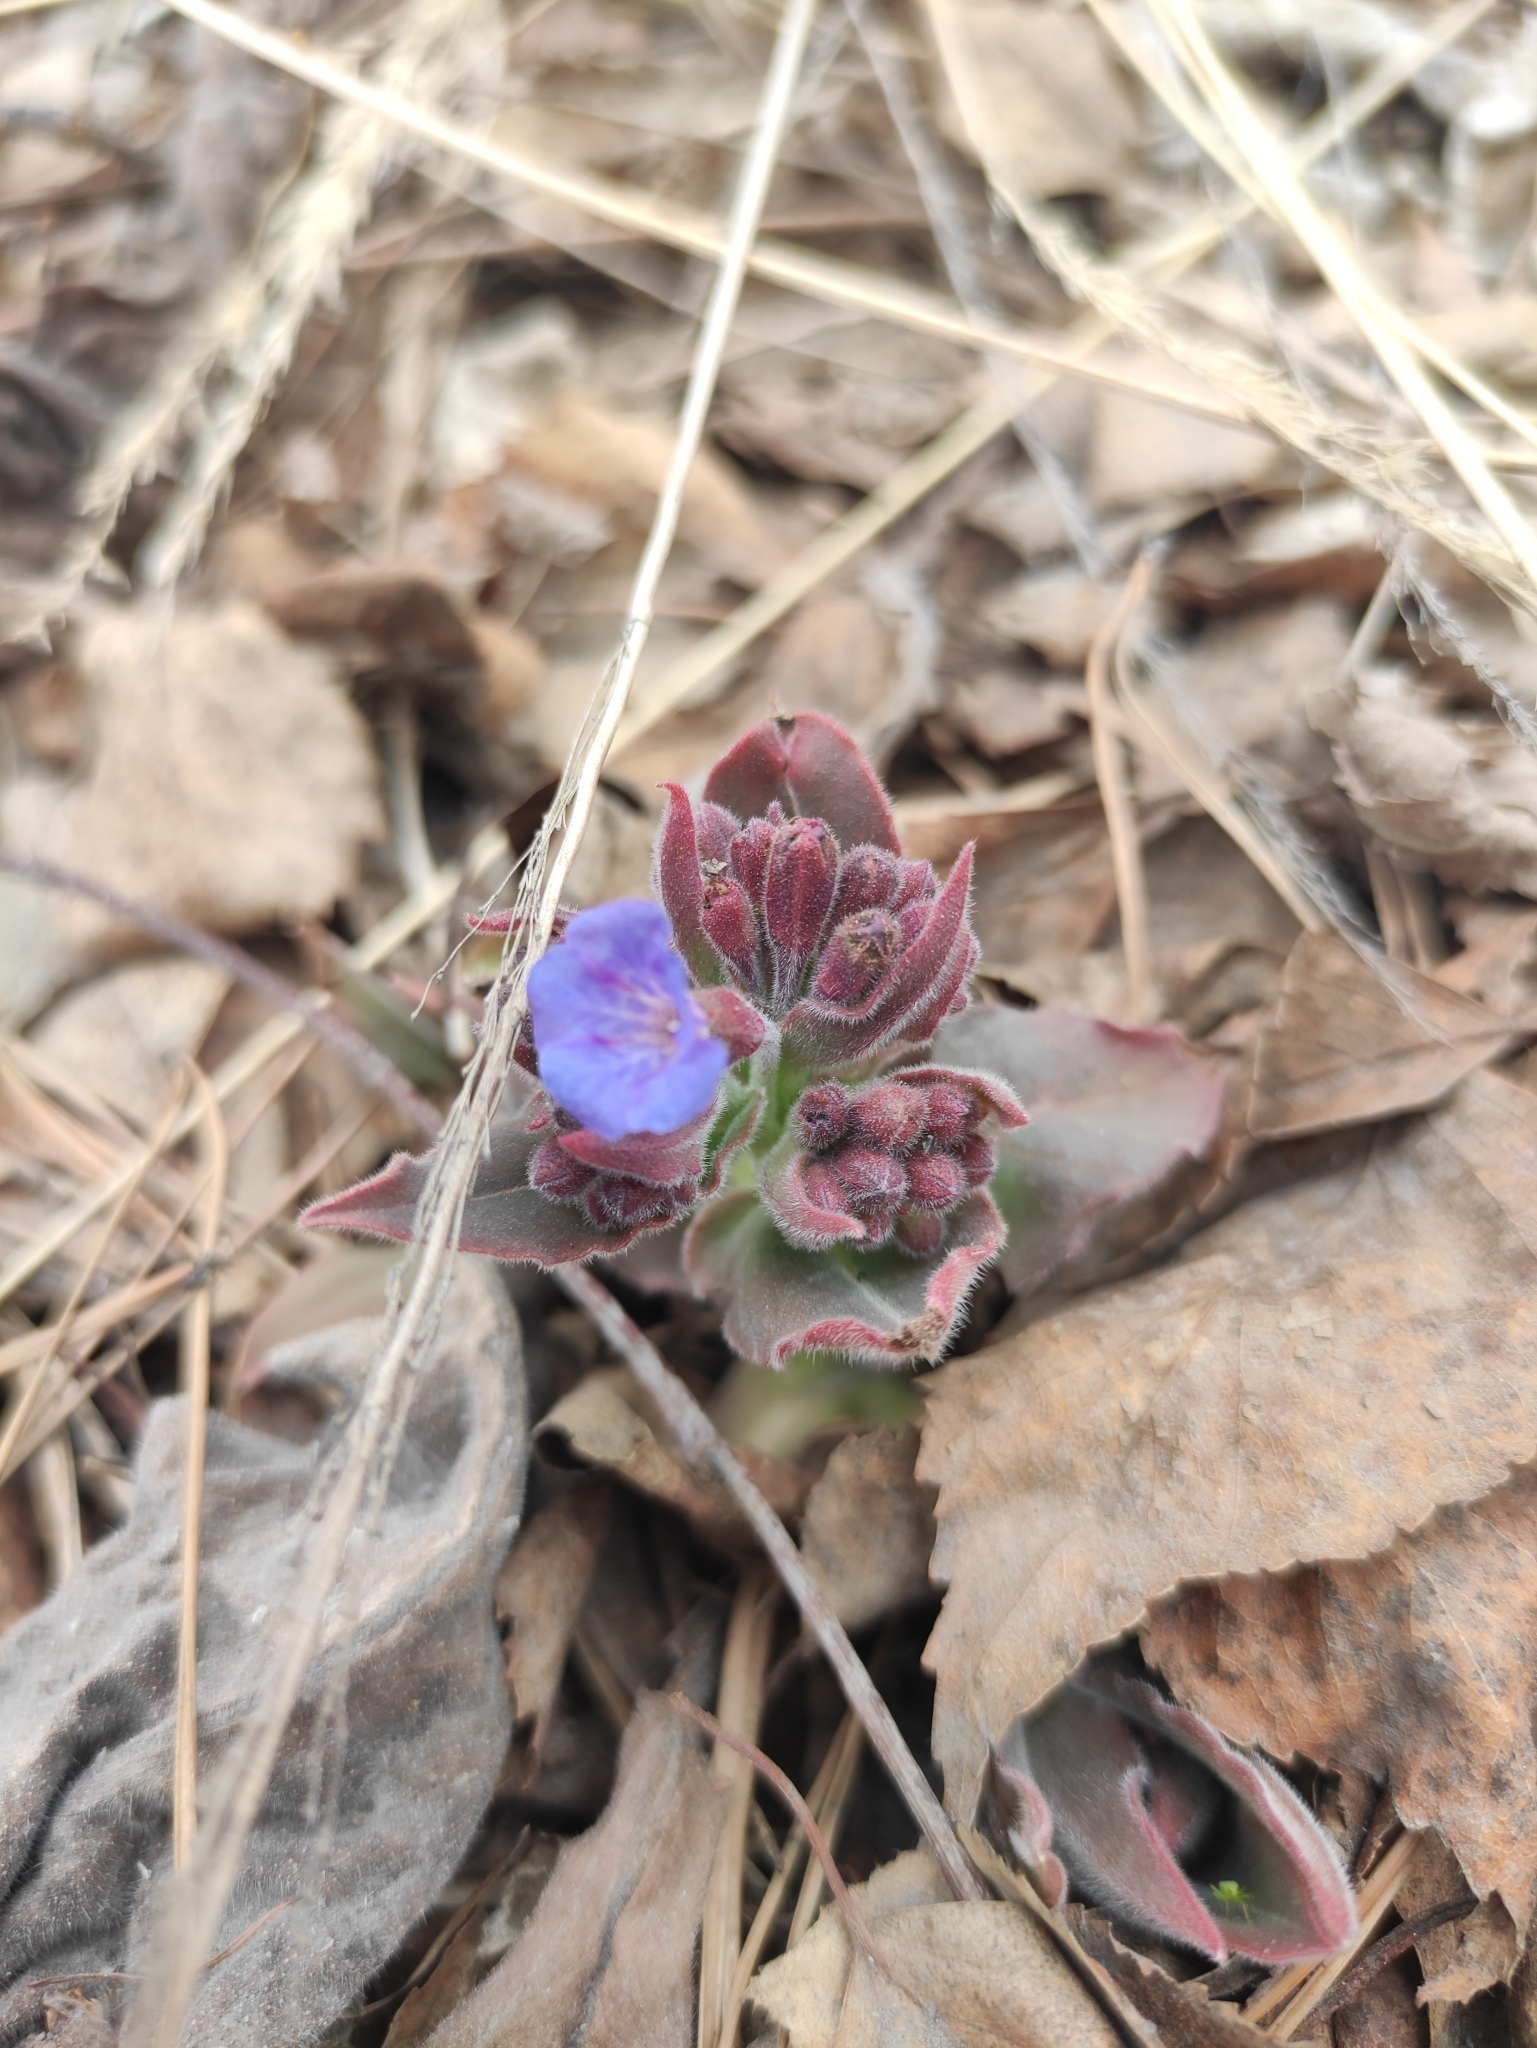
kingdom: Plantae
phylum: Tracheophyta
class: Magnoliopsida
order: Boraginales
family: Boraginaceae
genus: Pulmonaria
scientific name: Pulmonaria mollis
